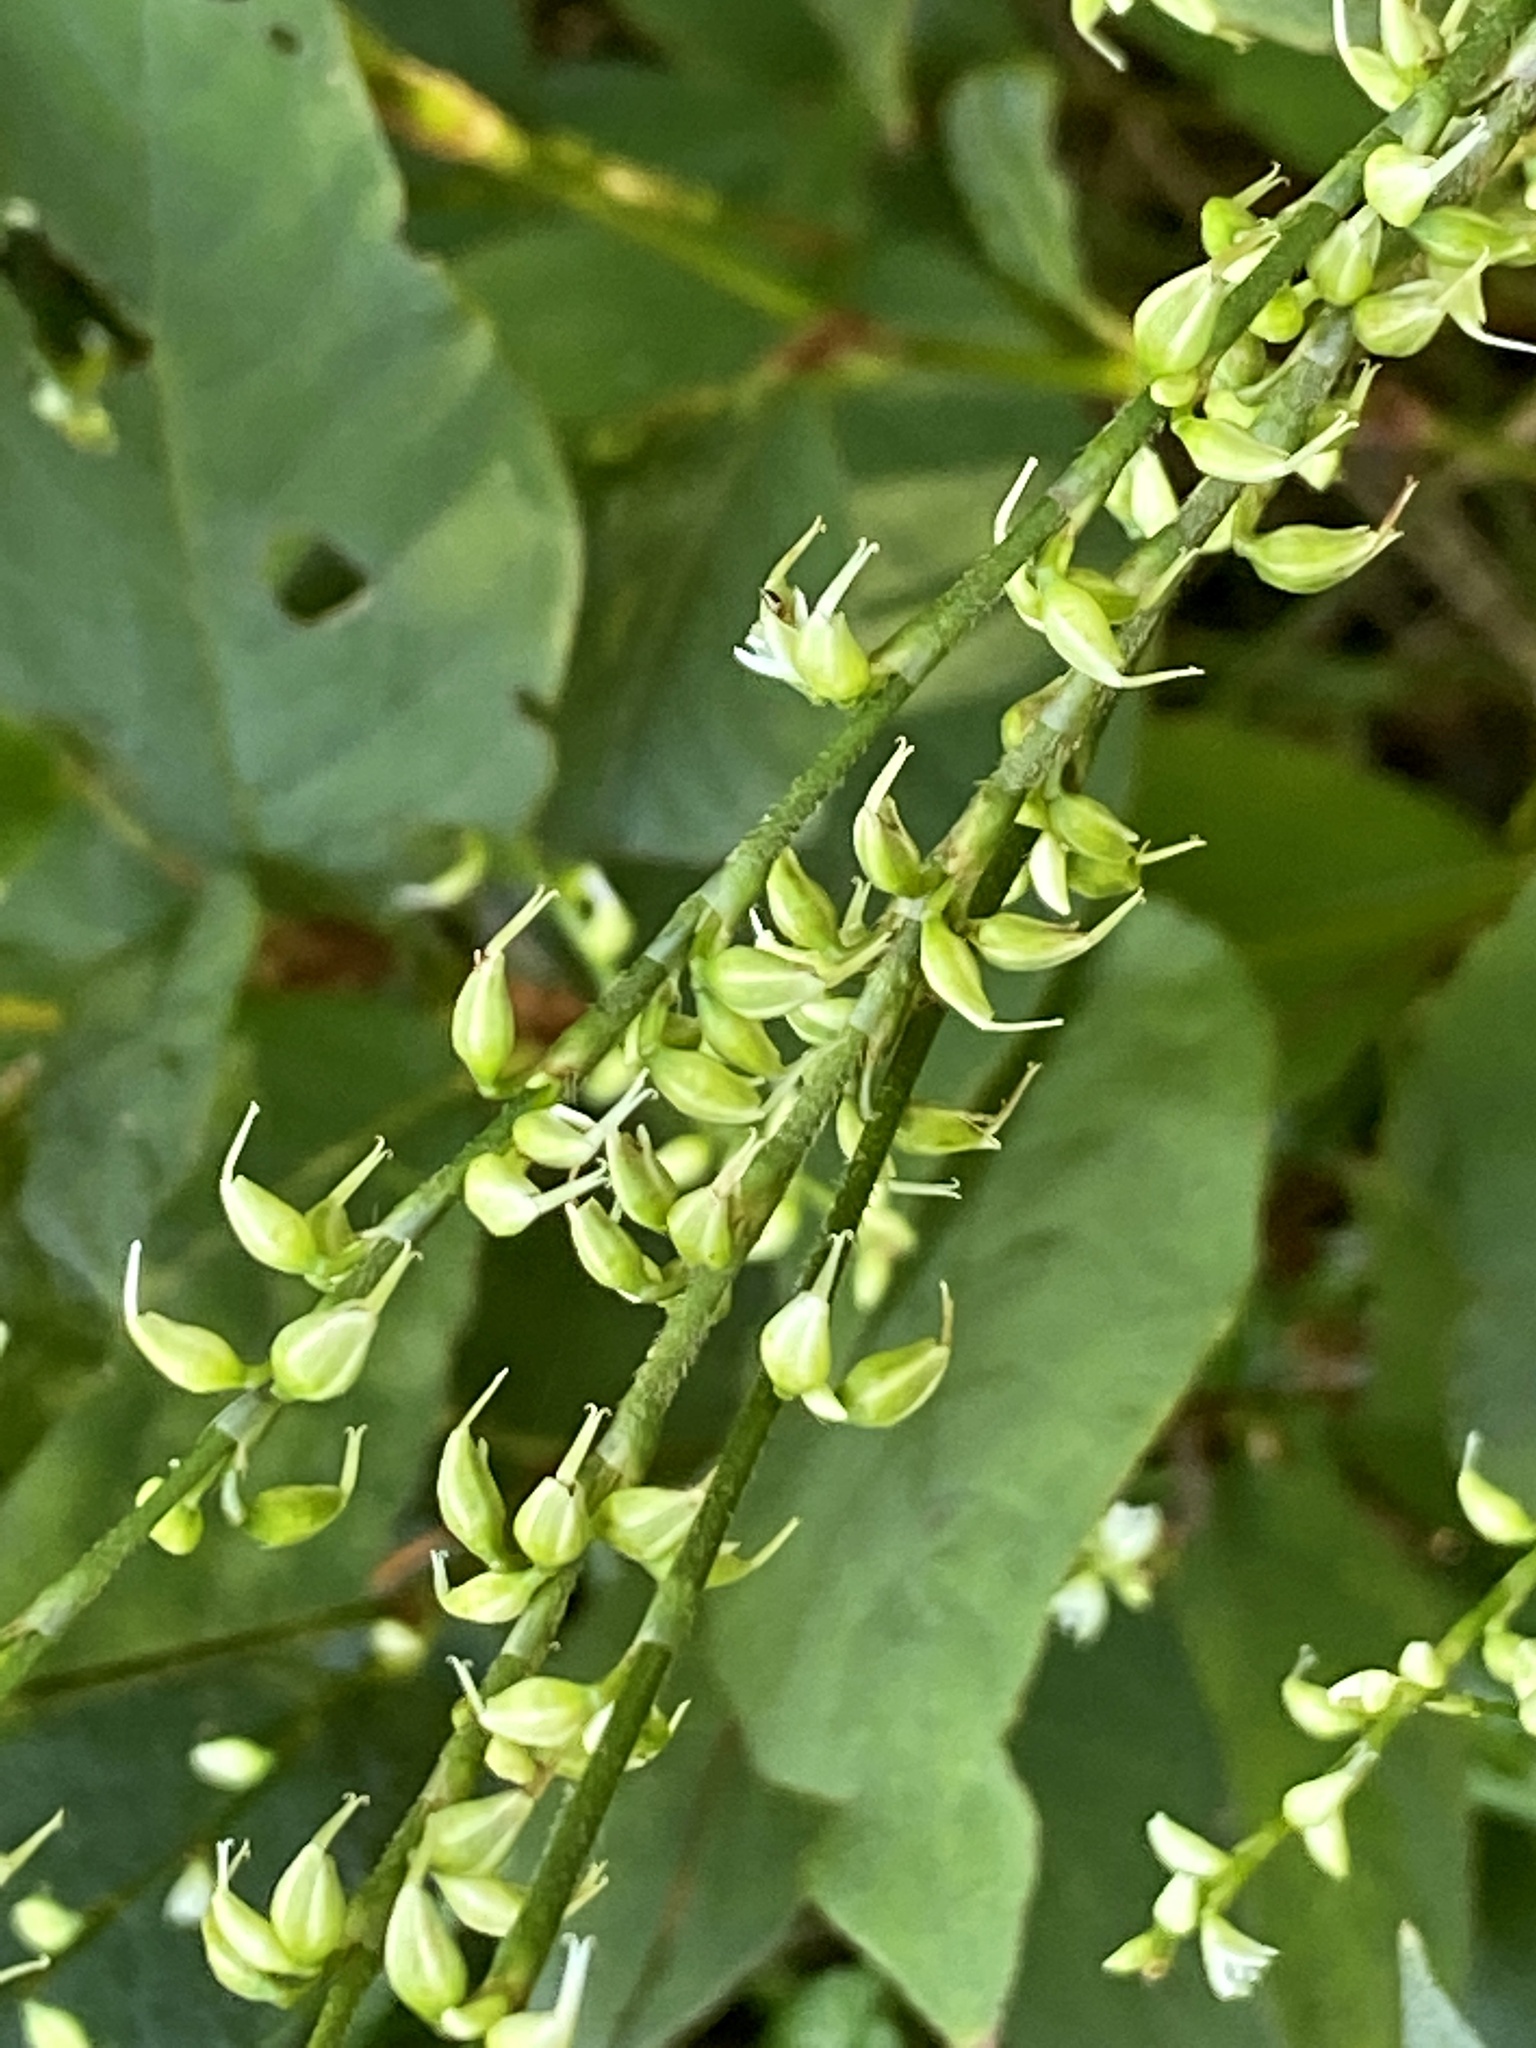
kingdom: Plantae
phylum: Tracheophyta
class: Magnoliopsida
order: Caryophyllales
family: Polygonaceae
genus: Persicaria
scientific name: Persicaria virginiana
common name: Jumpseed
